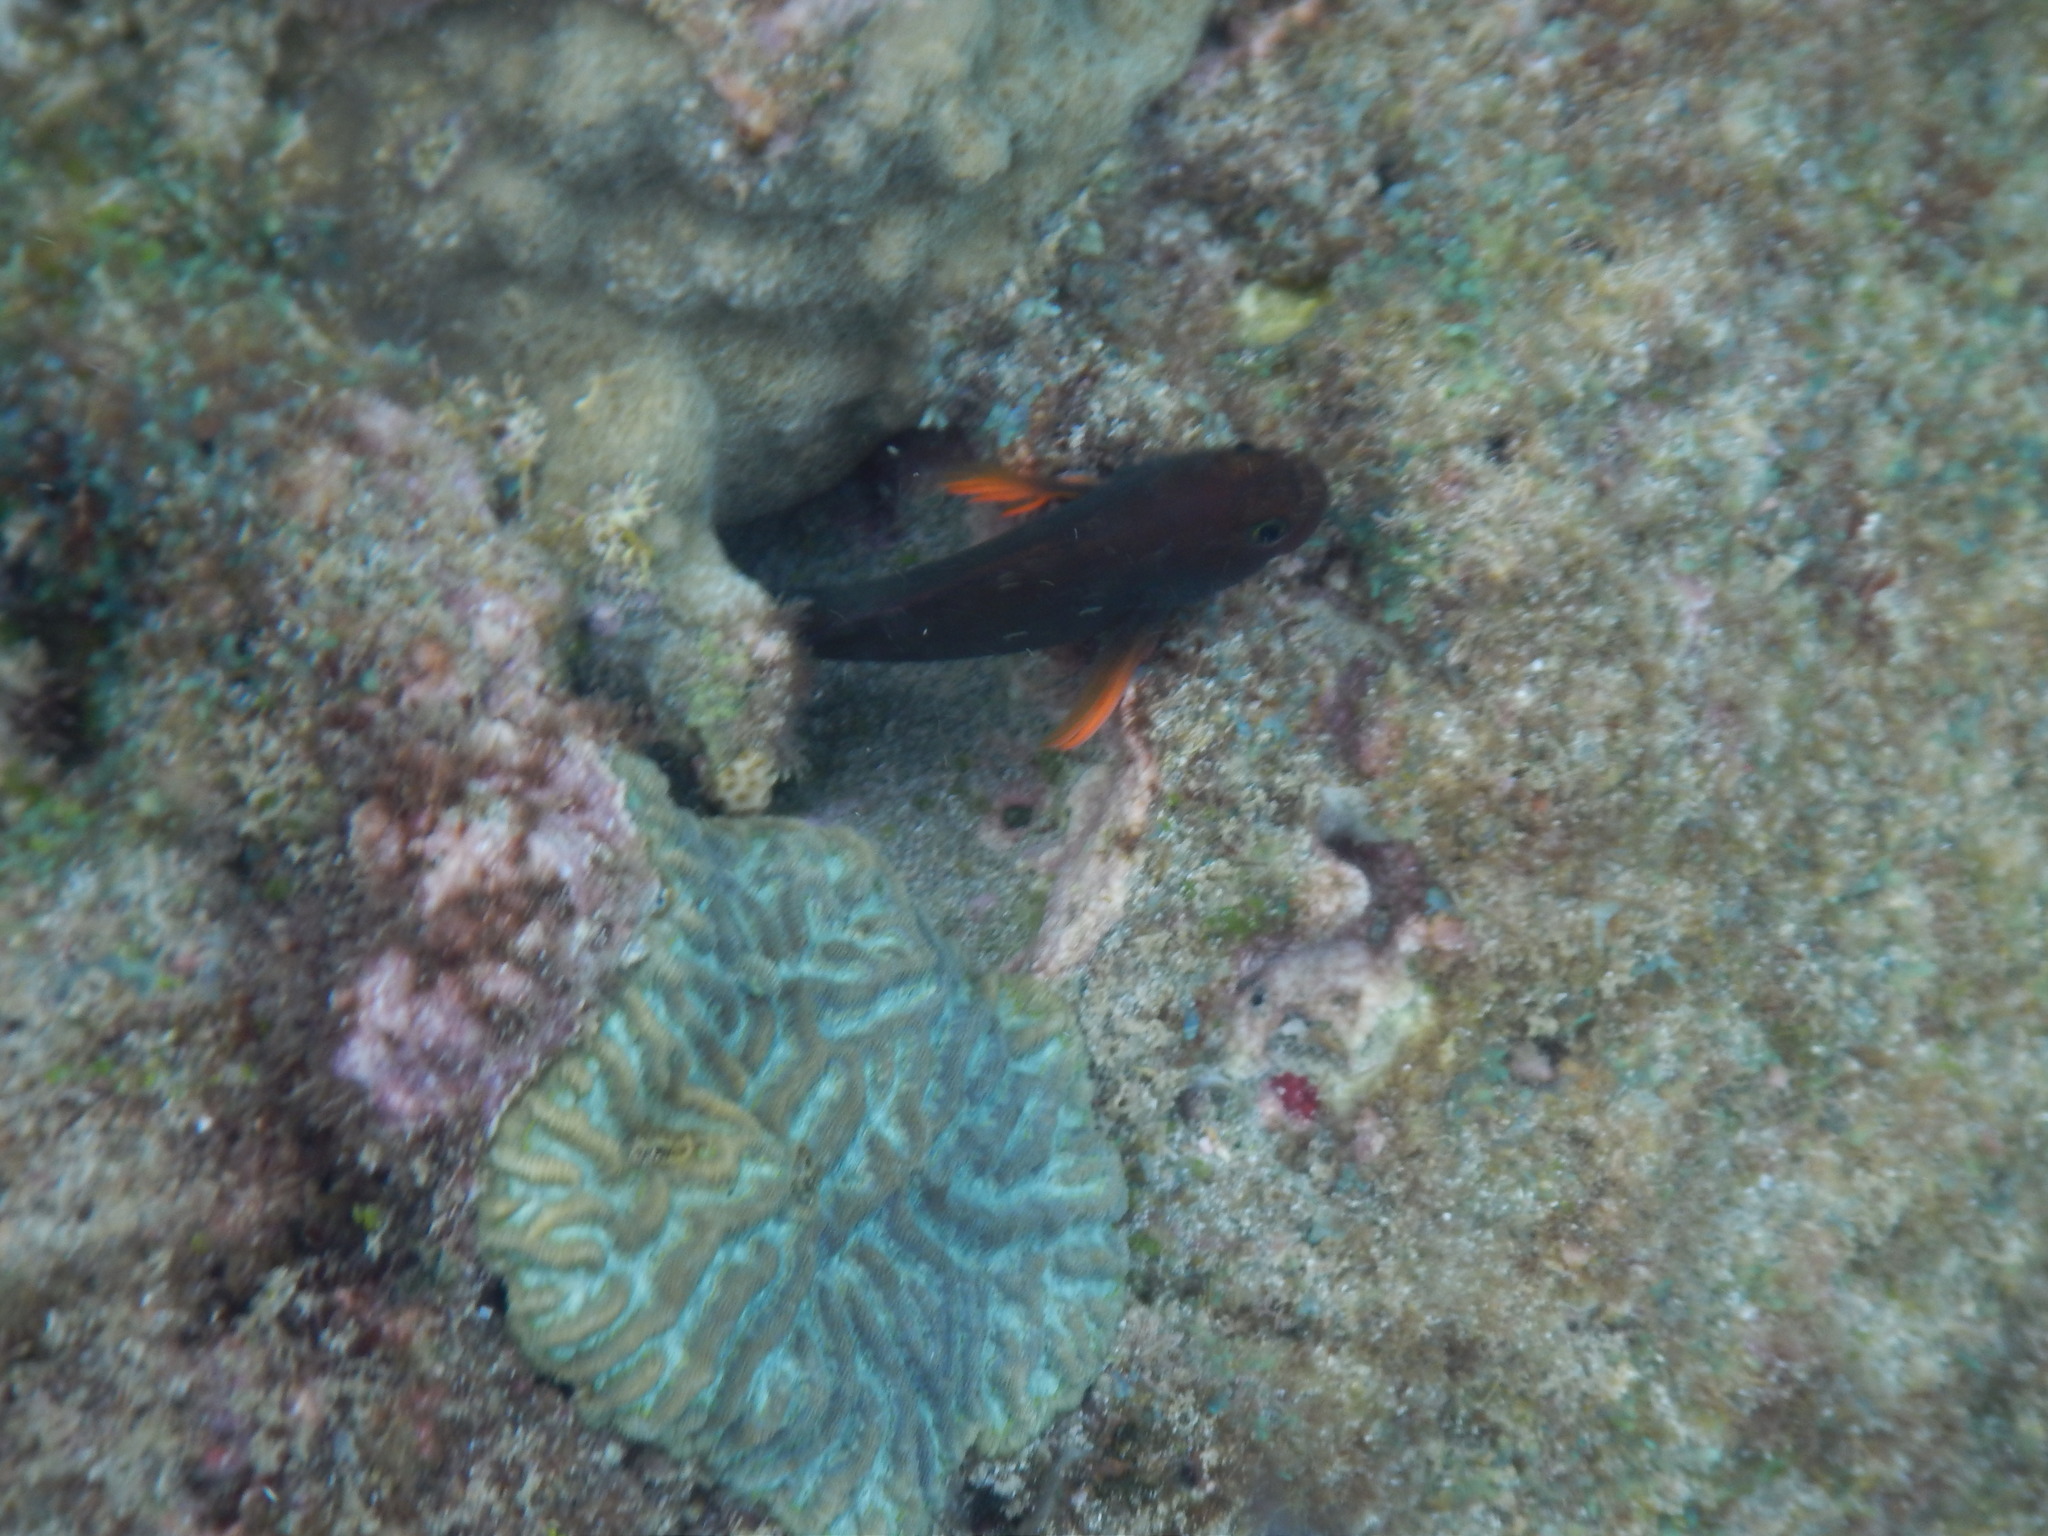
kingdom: Animalia
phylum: Chordata
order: Perciformes
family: Blenniidae
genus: Ophioblennius
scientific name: Ophioblennius macclurei
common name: Redlip blenny
